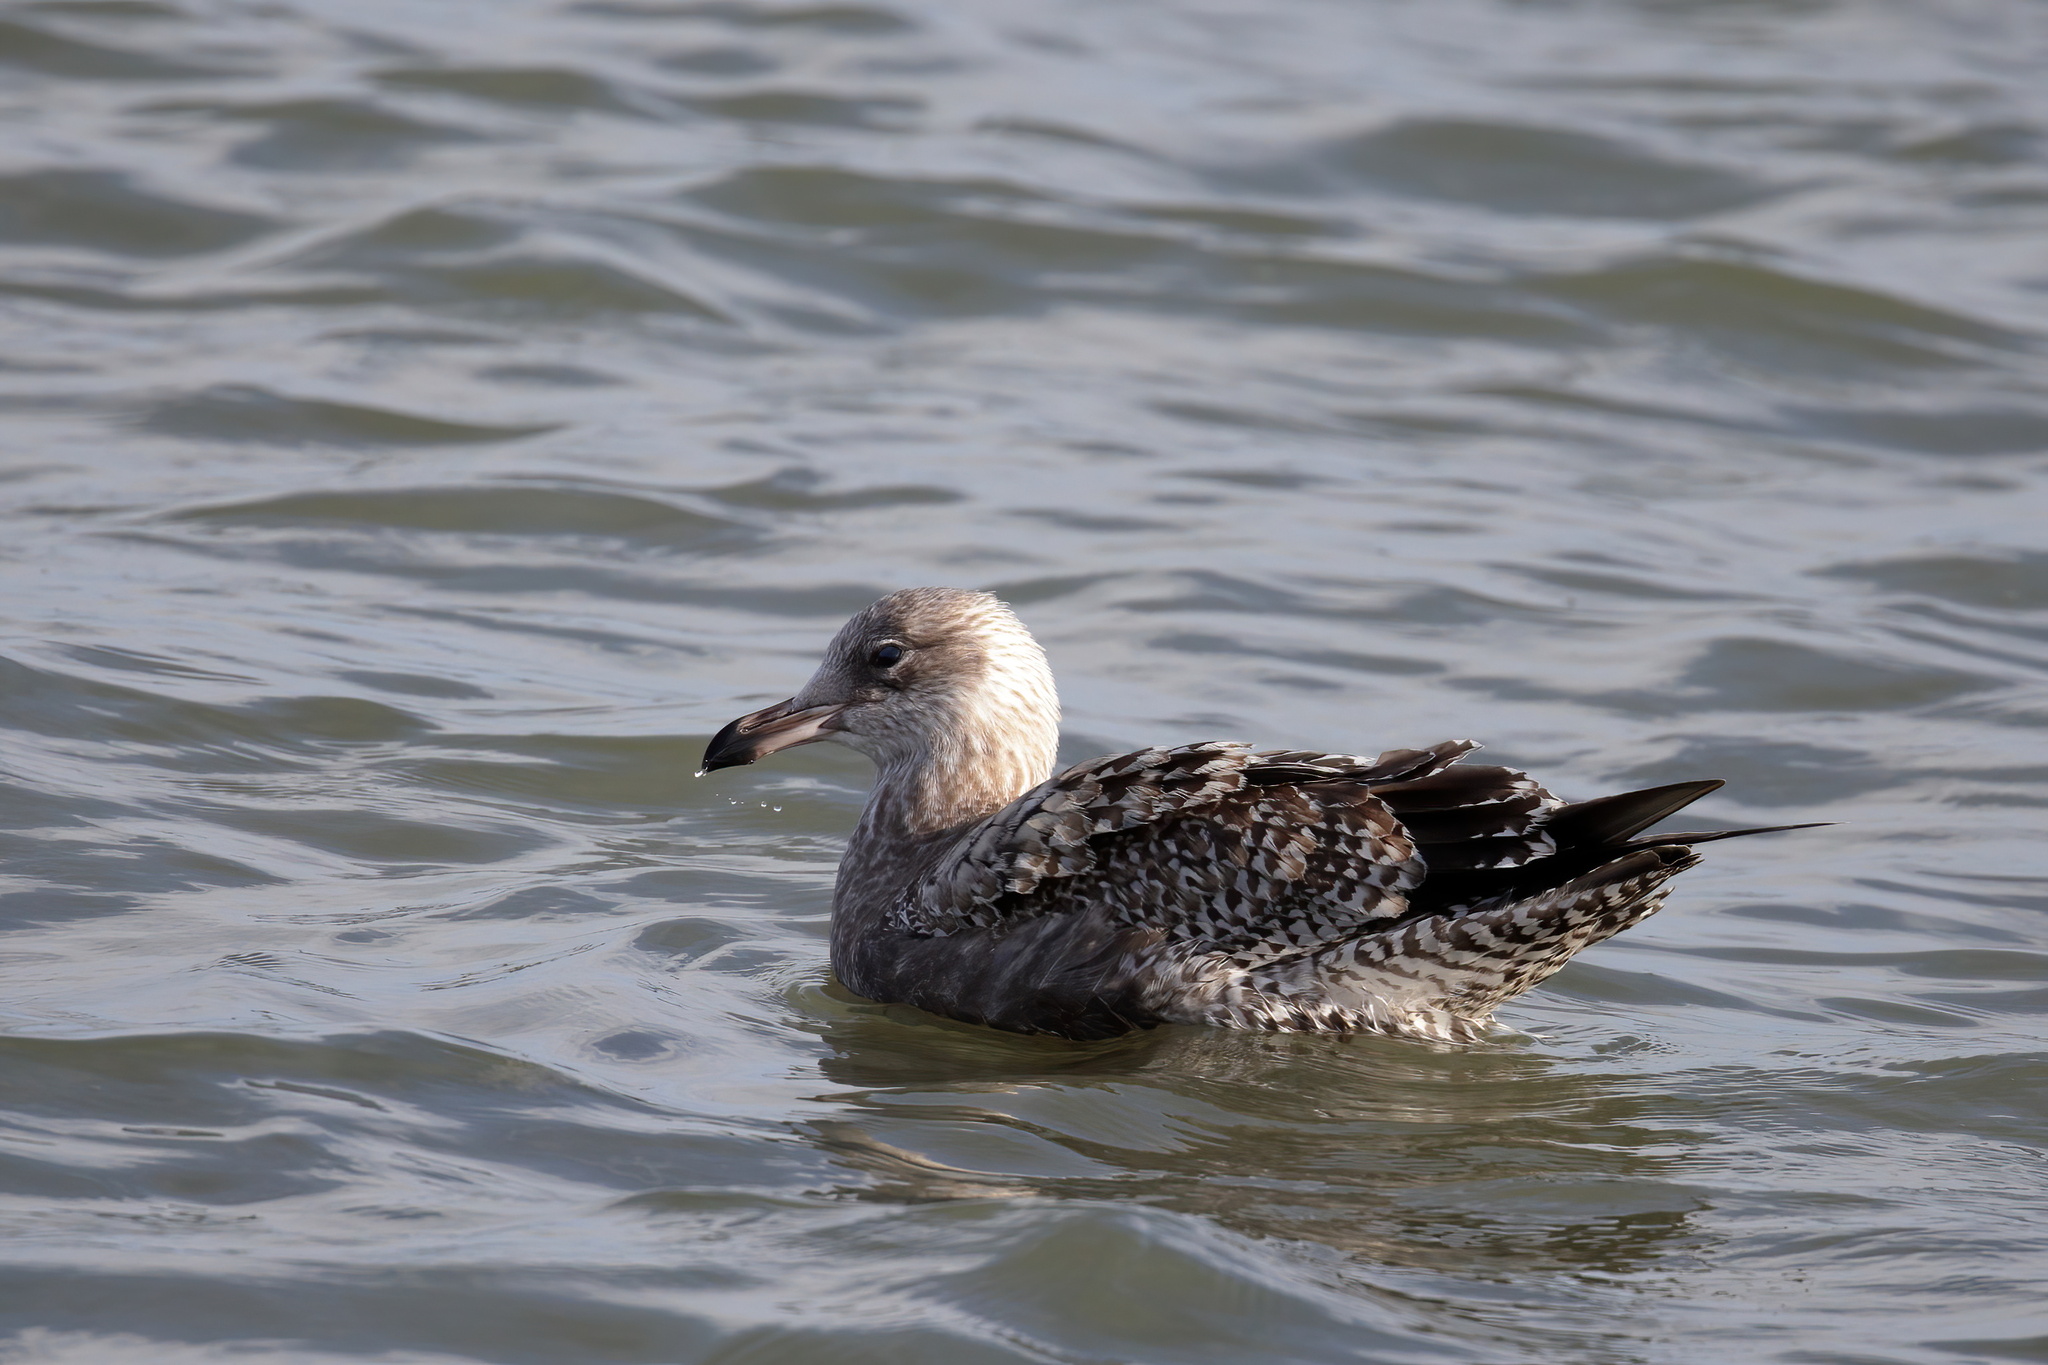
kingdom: Animalia
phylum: Chordata
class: Aves
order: Charadriiformes
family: Laridae
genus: Larus
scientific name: Larus argentatus
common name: Herring gull
